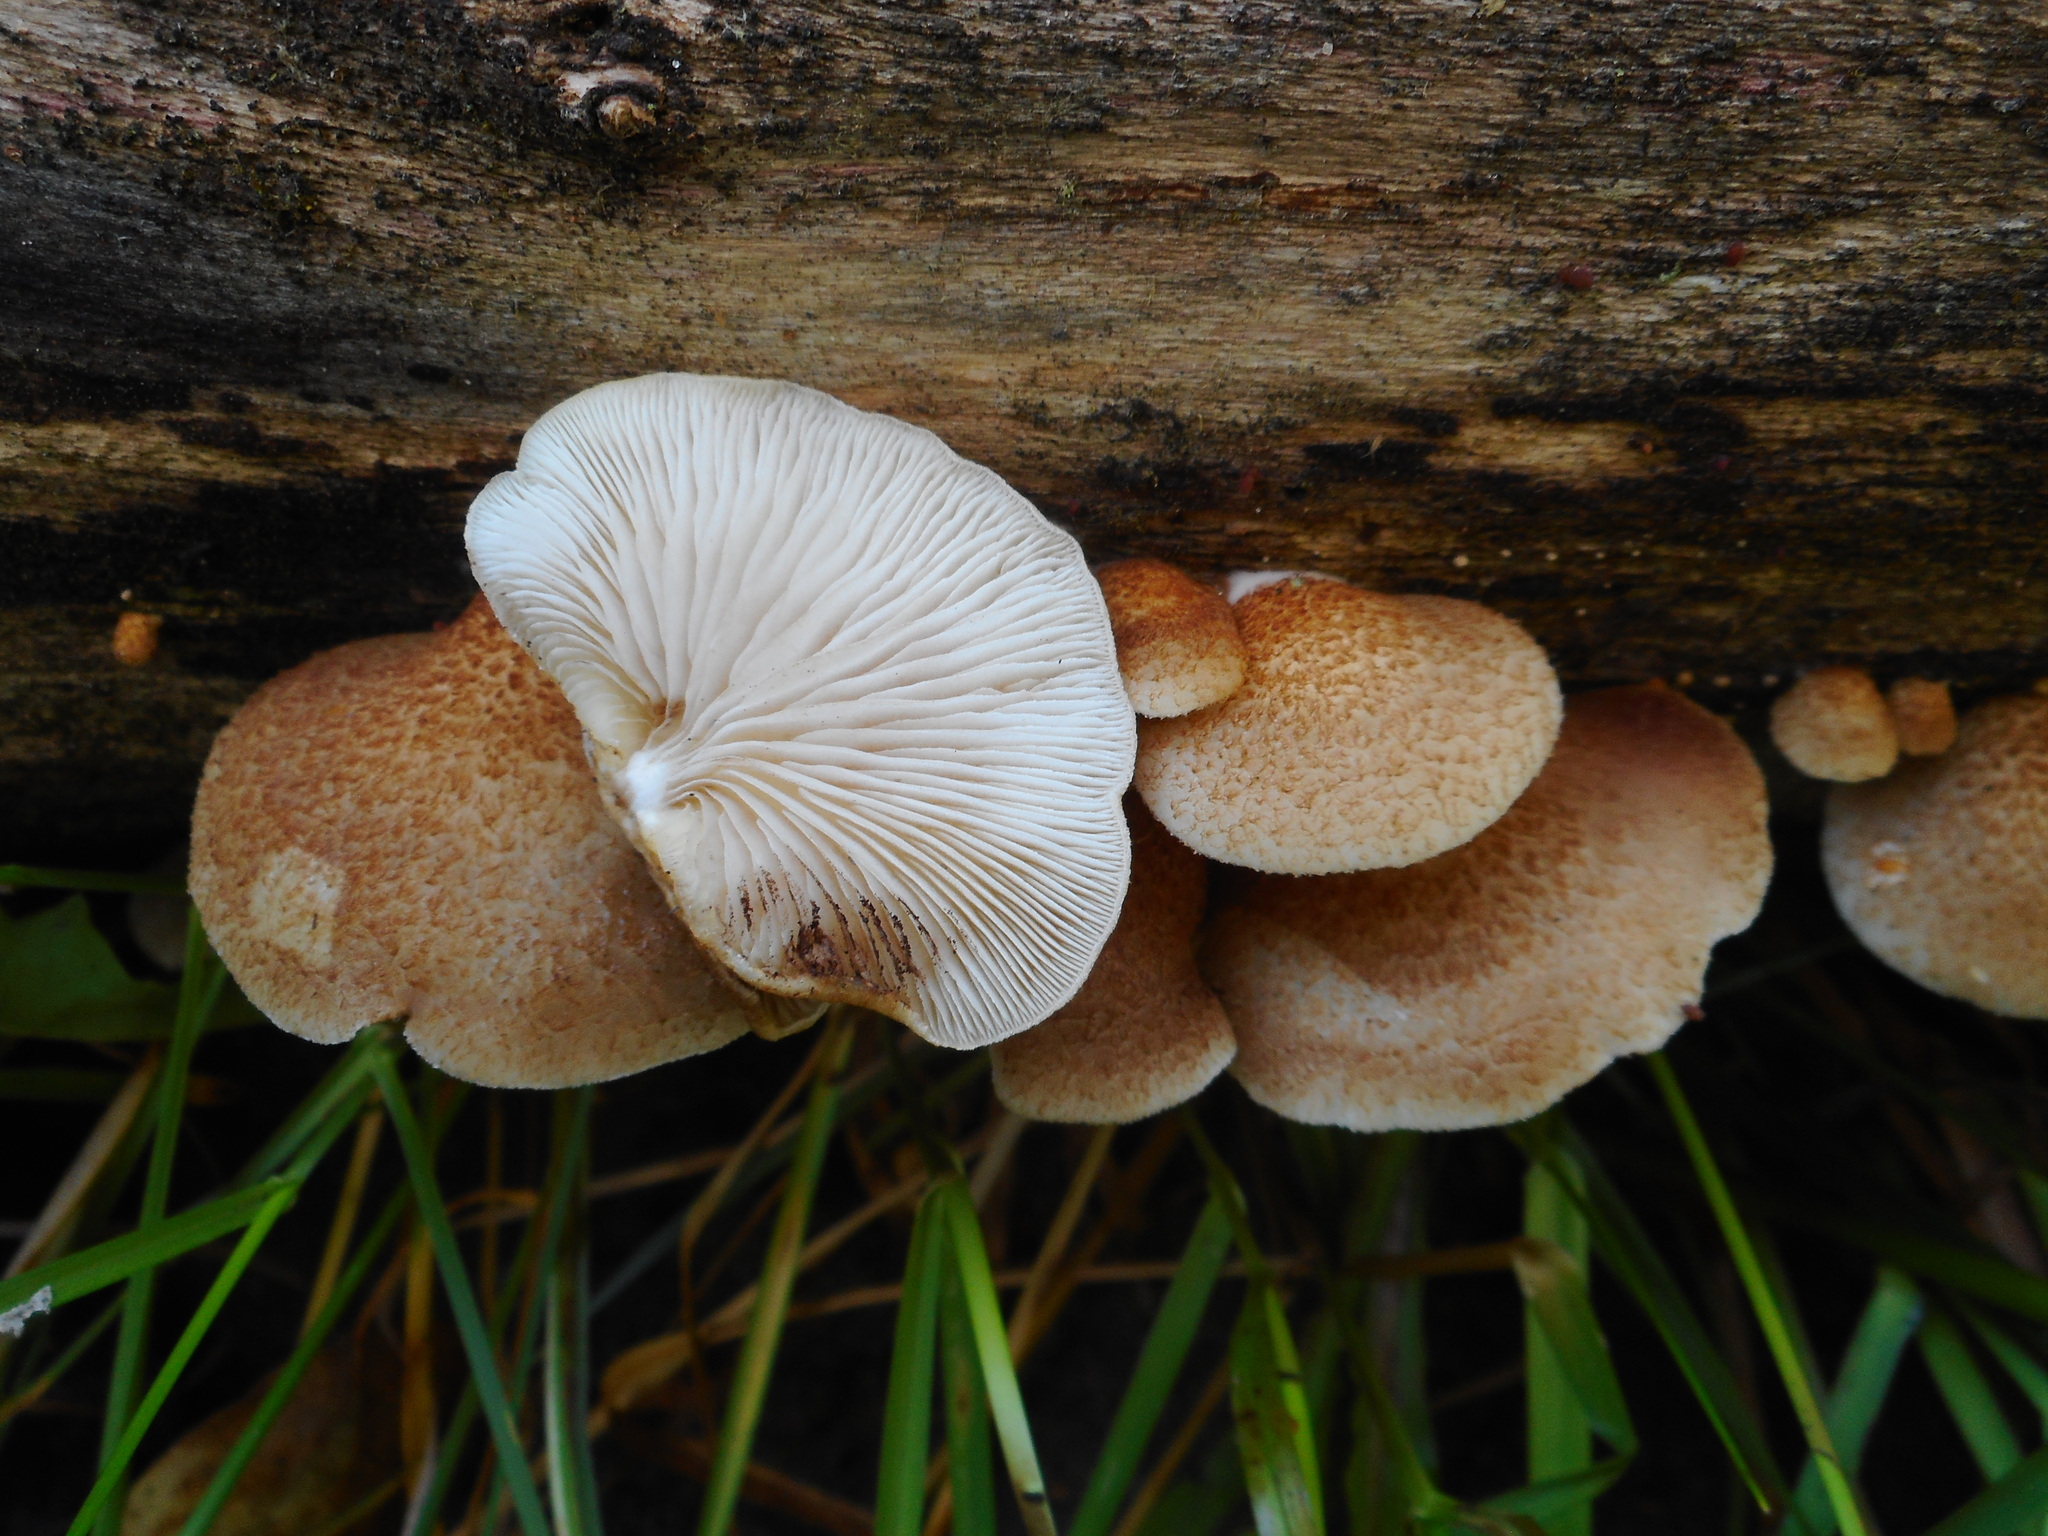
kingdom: Fungi
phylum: Basidiomycota
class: Agaricomycetes
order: Agaricales
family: Crepidotaceae
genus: Crepidotus
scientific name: Crepidotus calolepis
